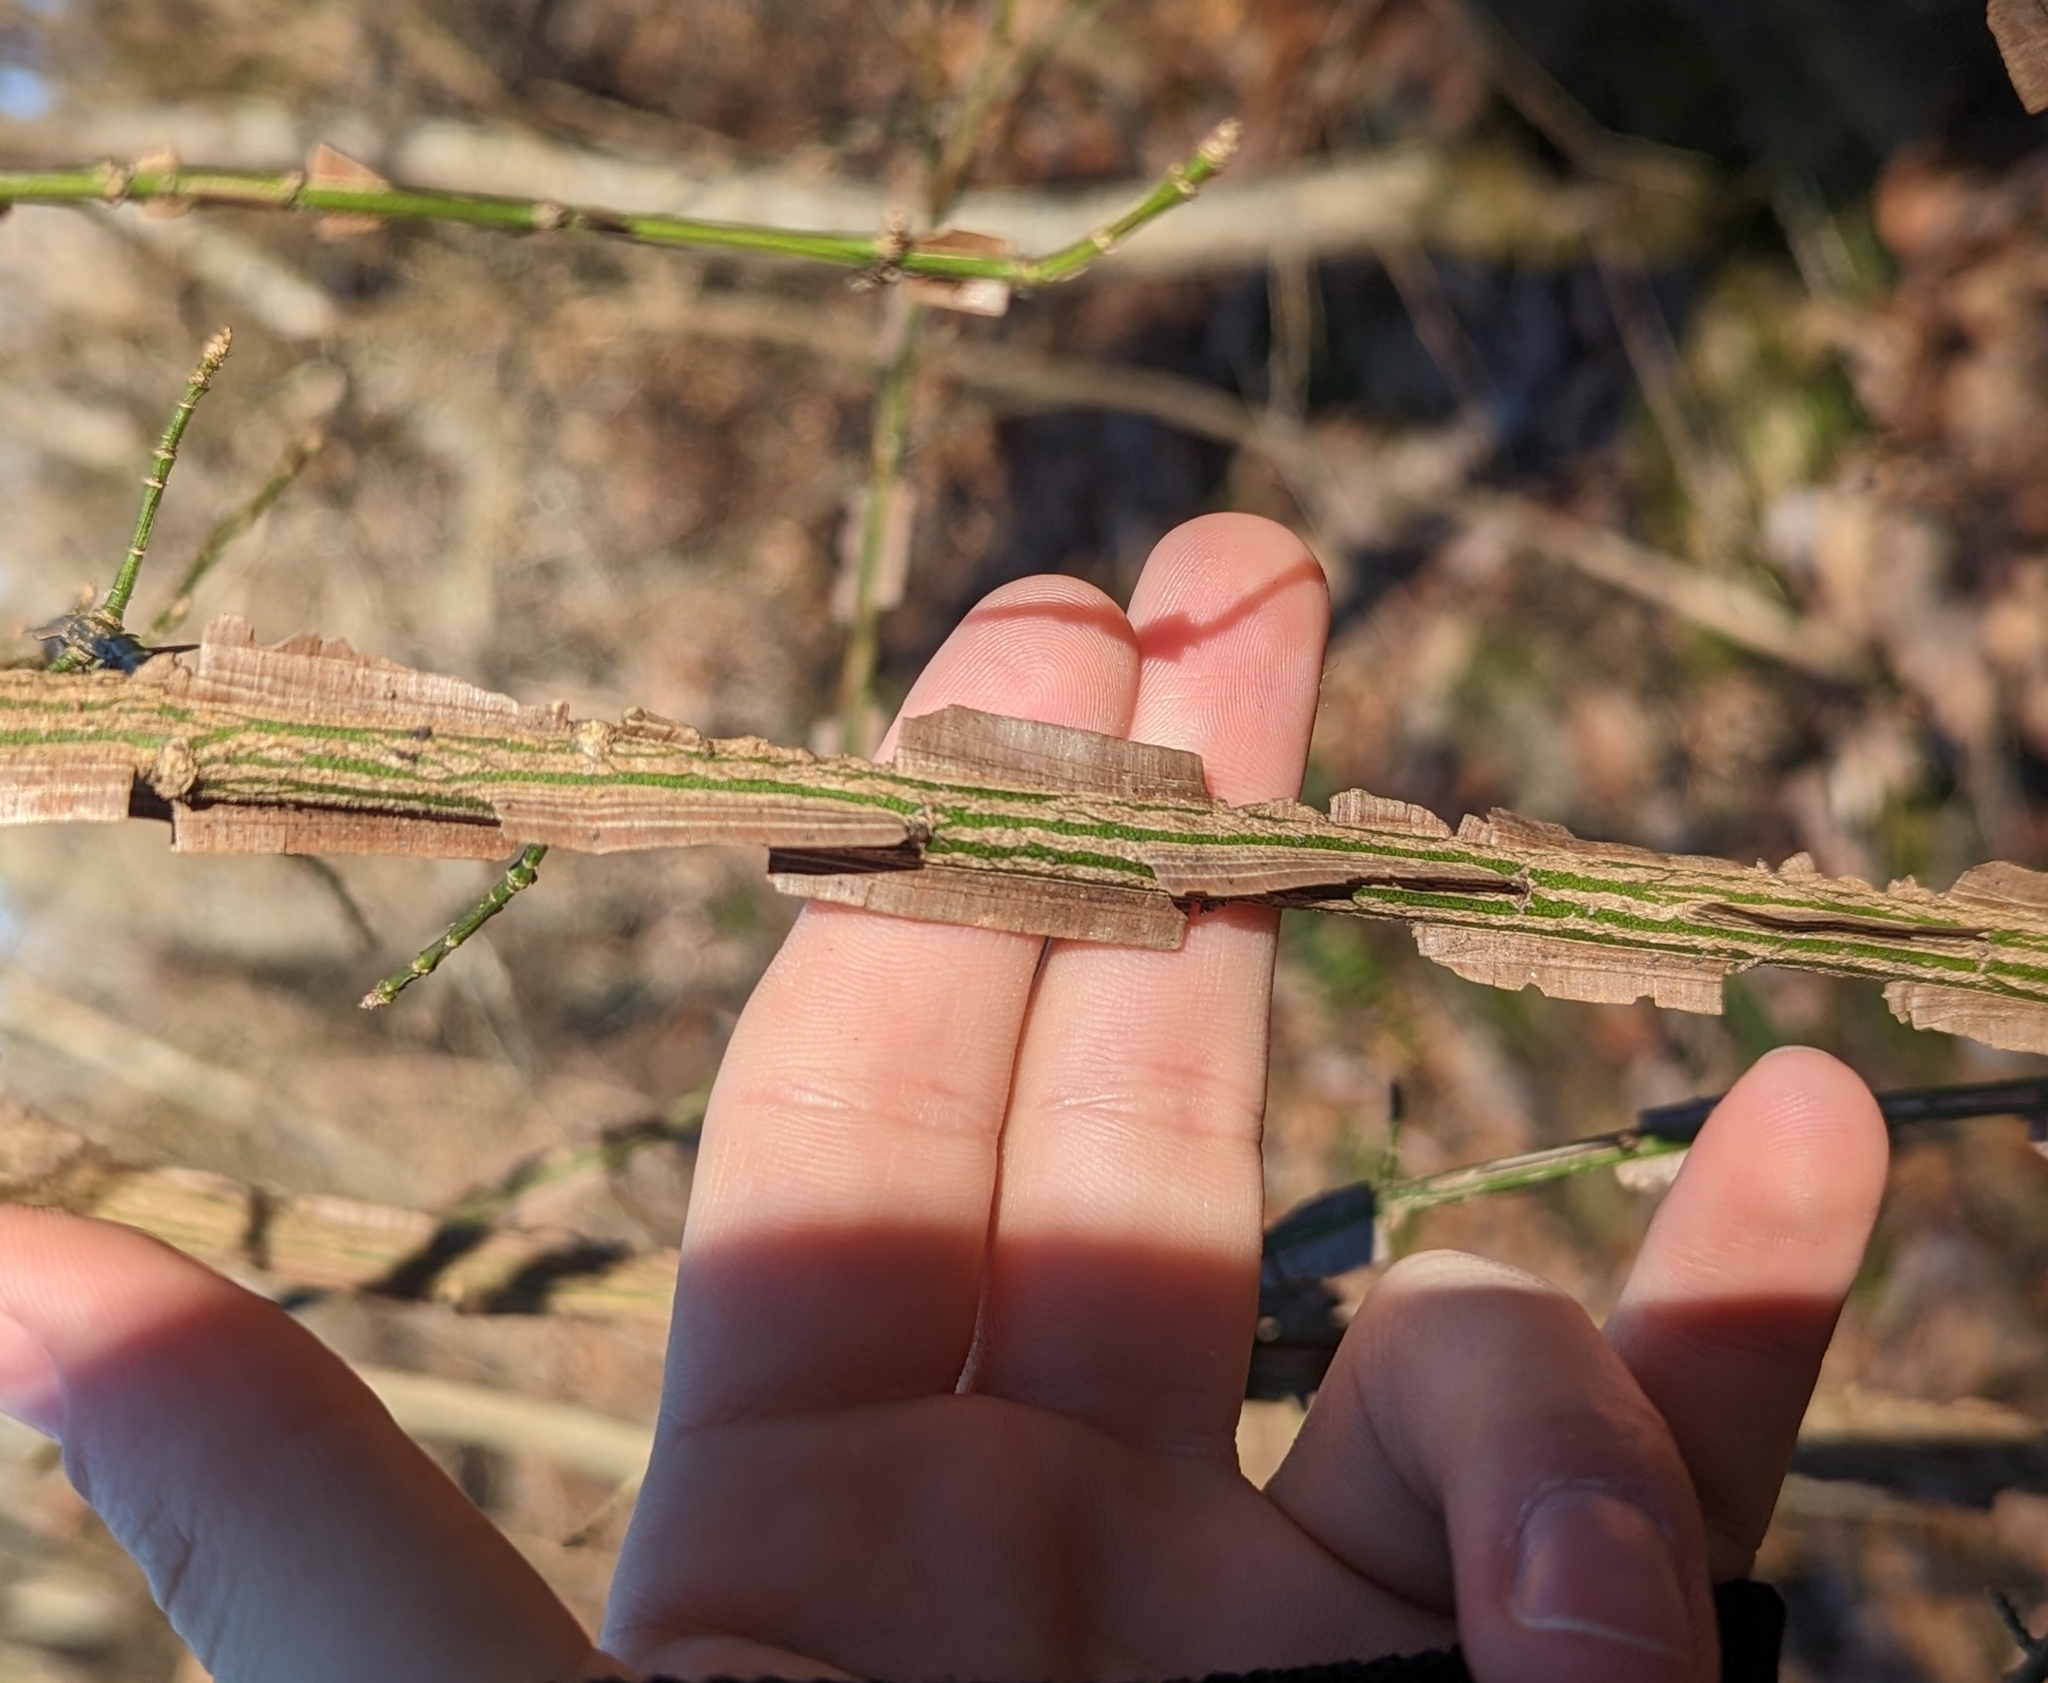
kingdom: Plantae
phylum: Tracheophyta
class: Magnoliopsida
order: Celastrales
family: Celastraceae
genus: Euonymus
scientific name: Euonymus alatus
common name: Winged euonymus
